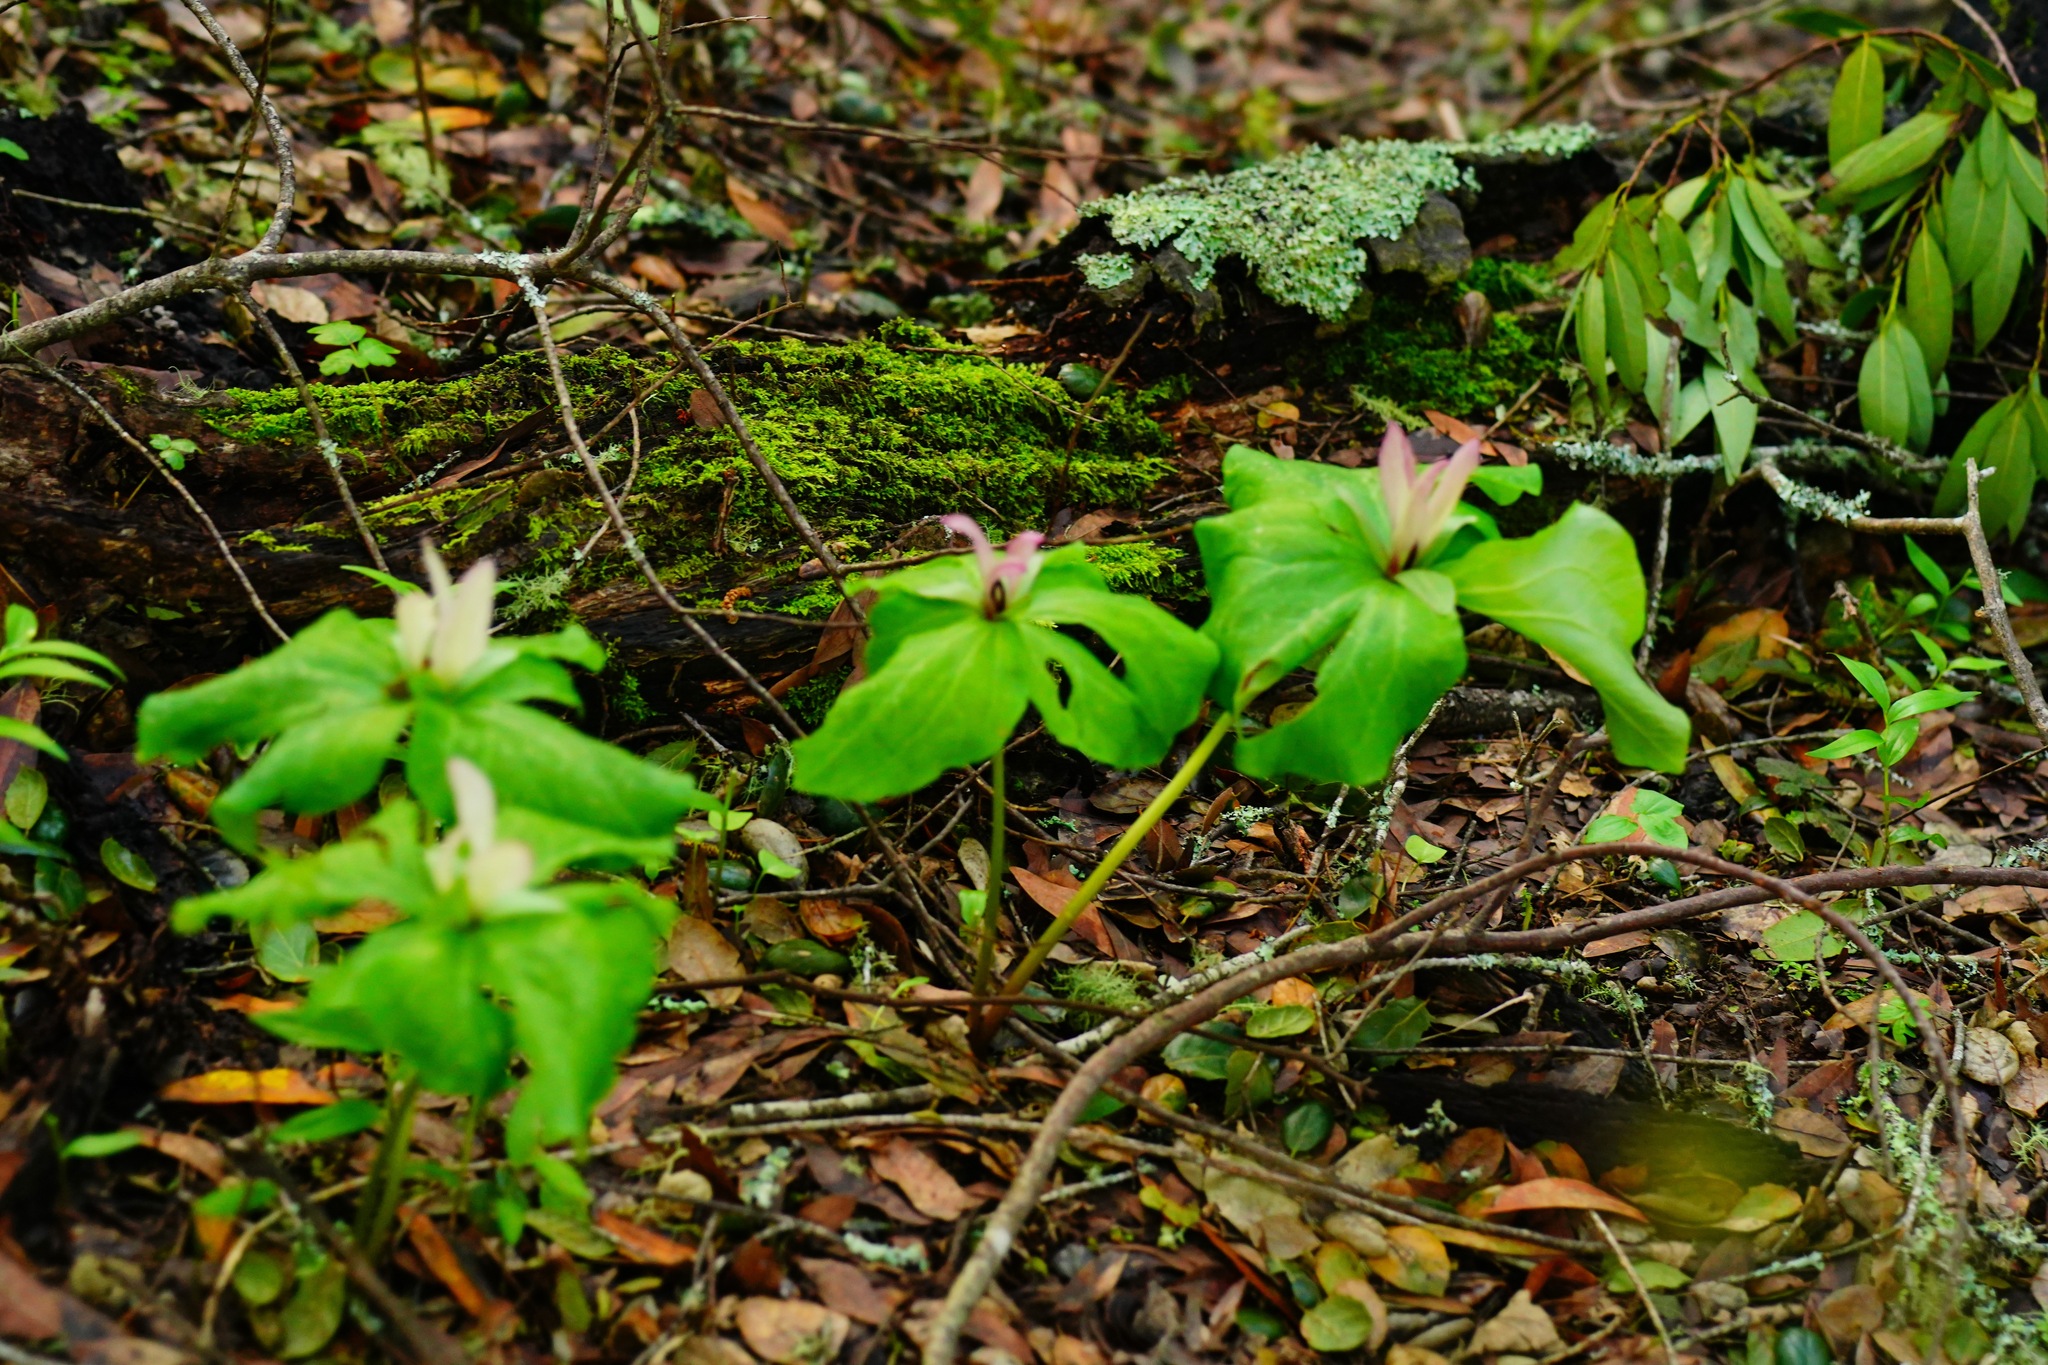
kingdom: Plantae
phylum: Tracheophyta
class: Liliopsida
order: Liliales
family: Melanthiaceae
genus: Trillium
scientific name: Trillium chloropetalum
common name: Giant trillium
